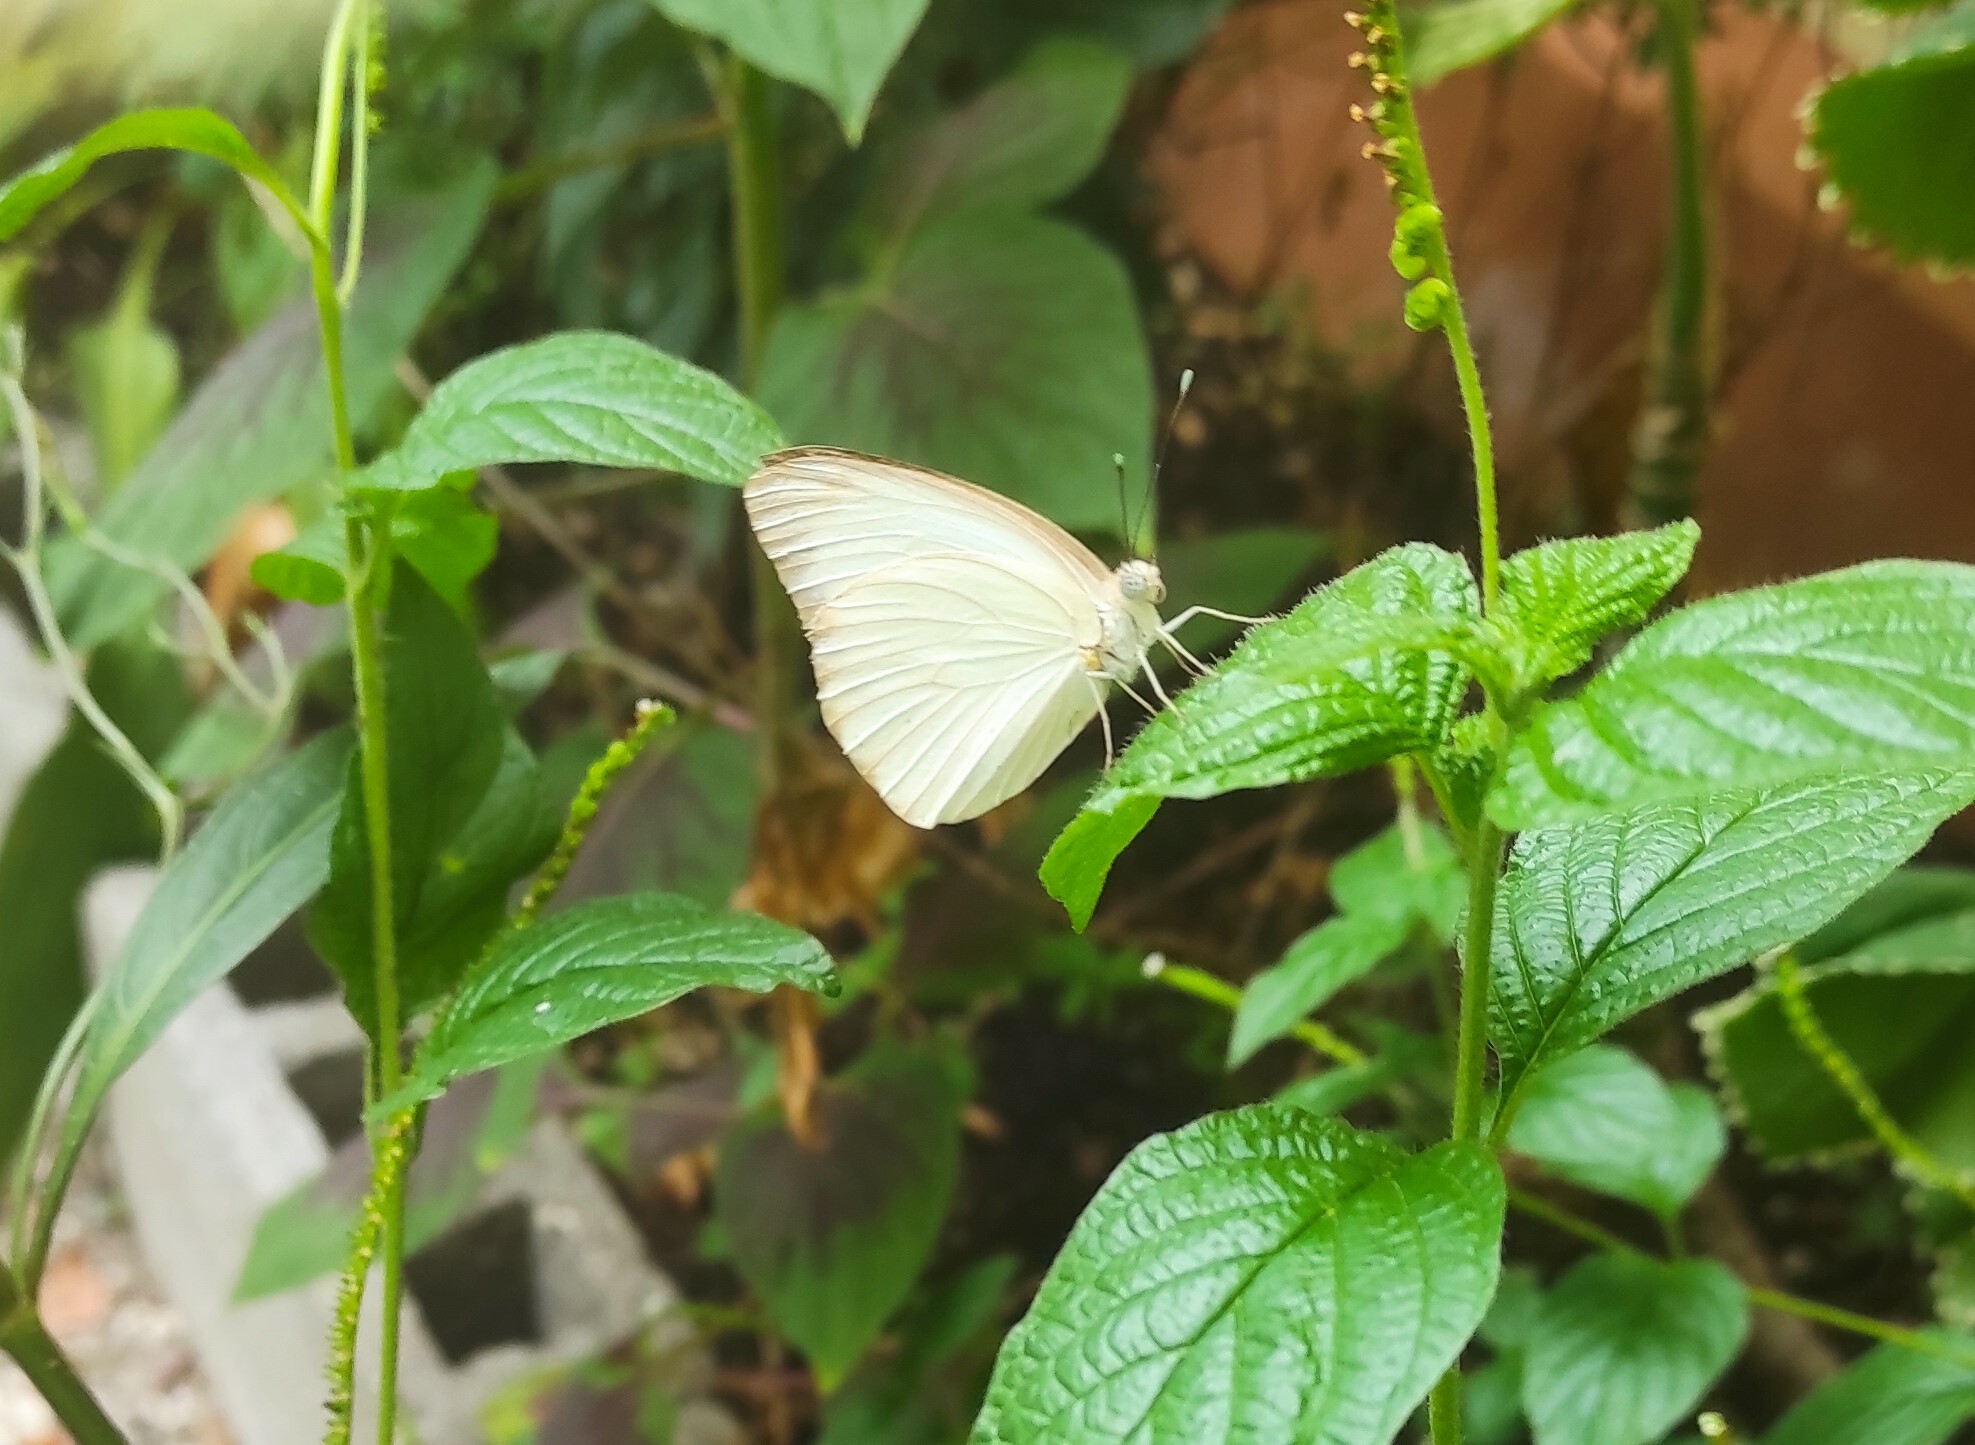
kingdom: Animalia
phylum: Arthropoda
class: Insecta
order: Lepidoptera
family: Pieridae
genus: Ascia
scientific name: Ascia monuste
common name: Great southern white
